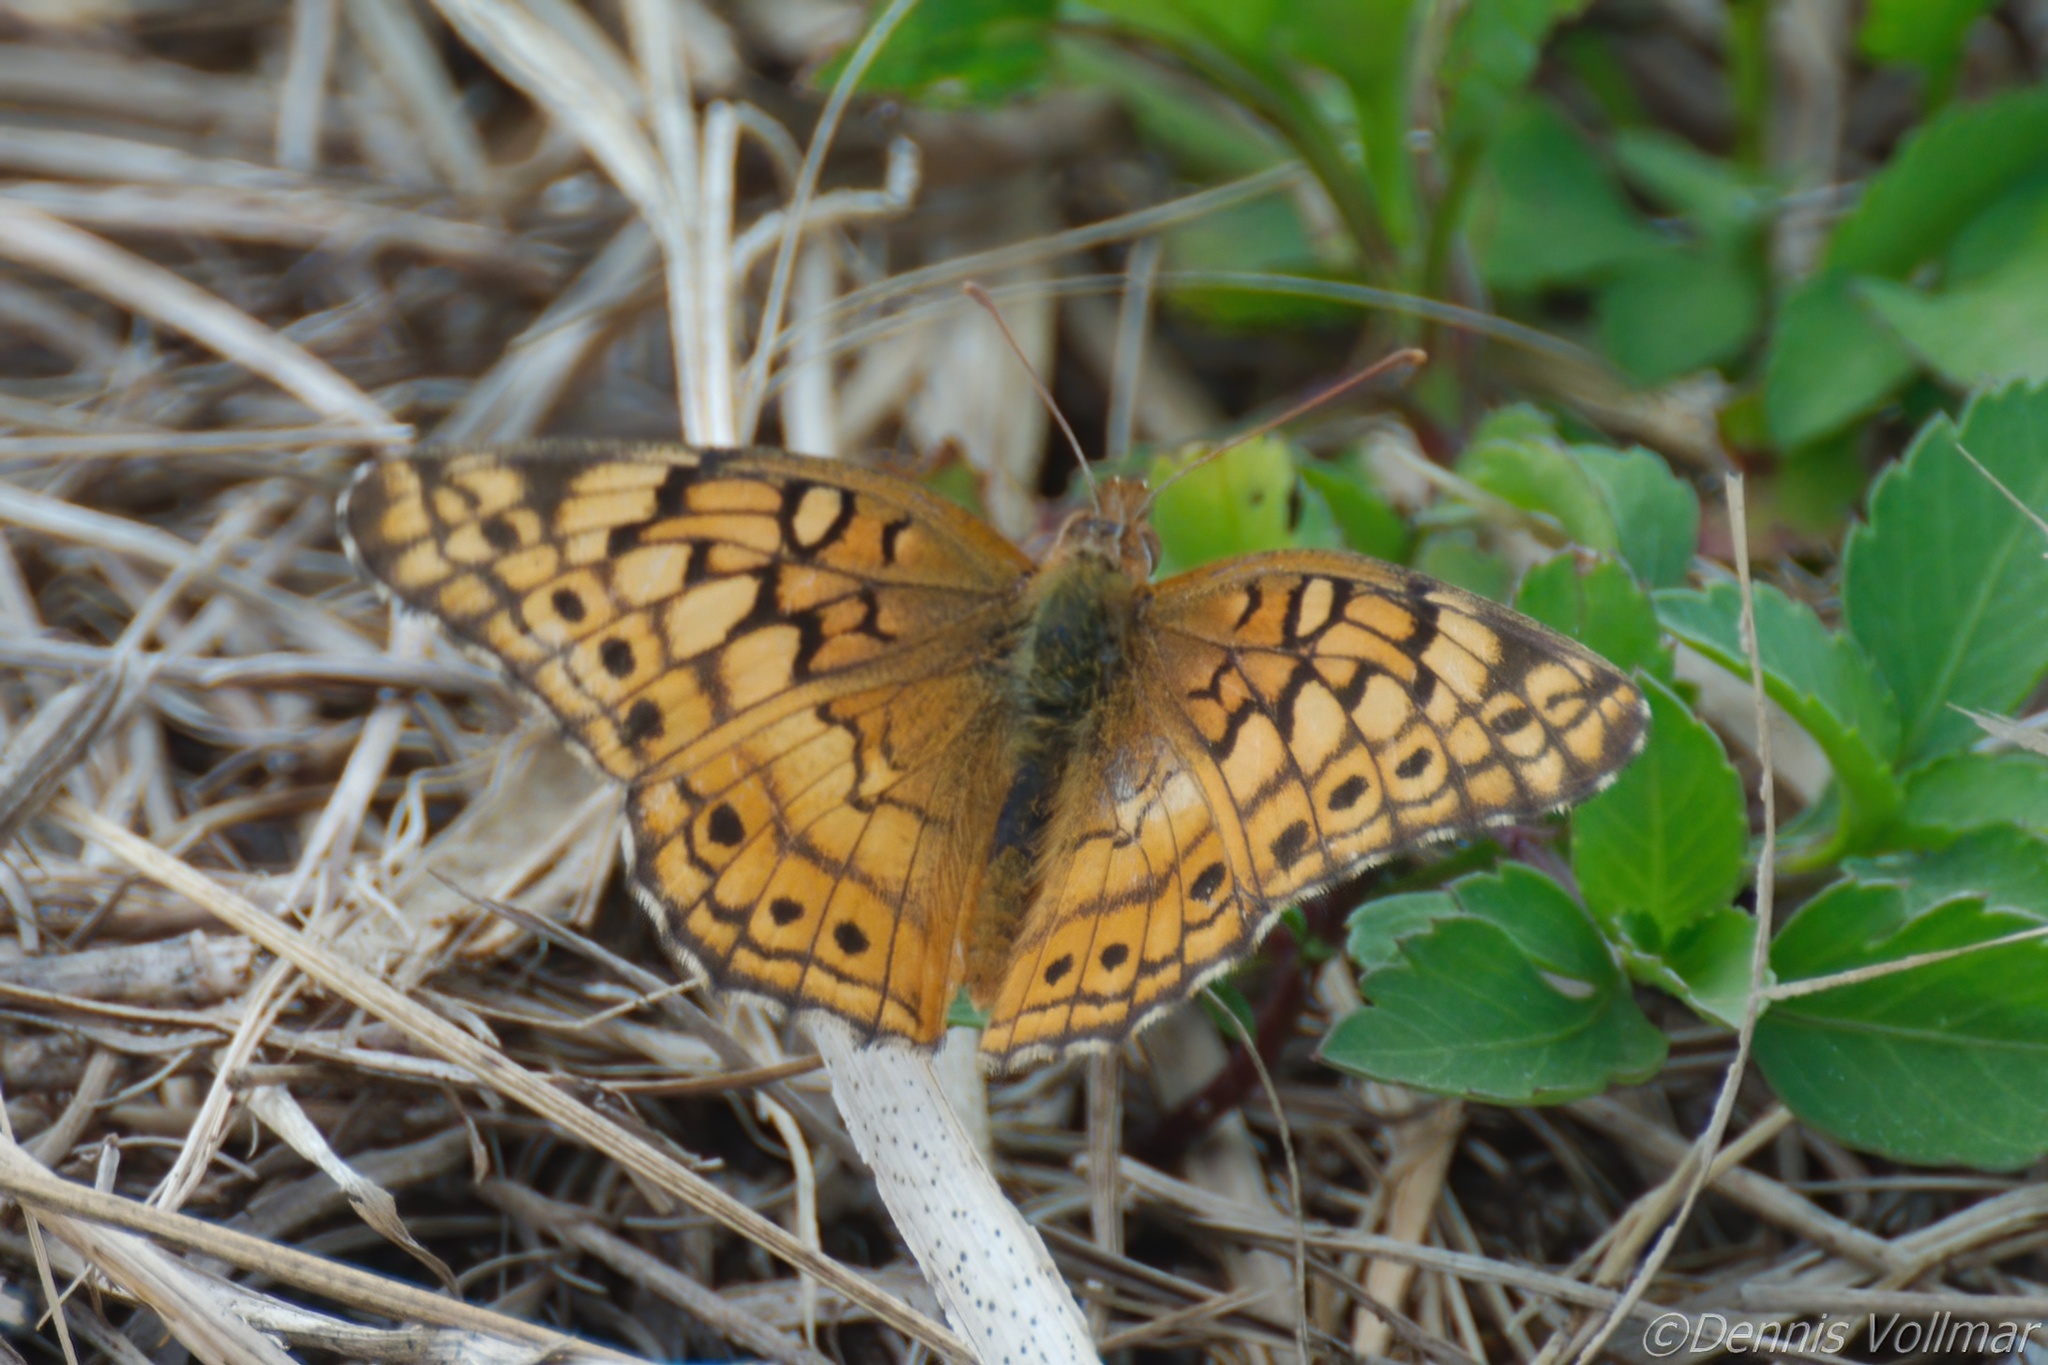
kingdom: Animalia
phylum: Arthropoda
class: Insecta
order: Lepidoptera
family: Nymphalidae
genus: Euptoieta
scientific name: Euptoieta claudia
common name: Variegated fritillary
